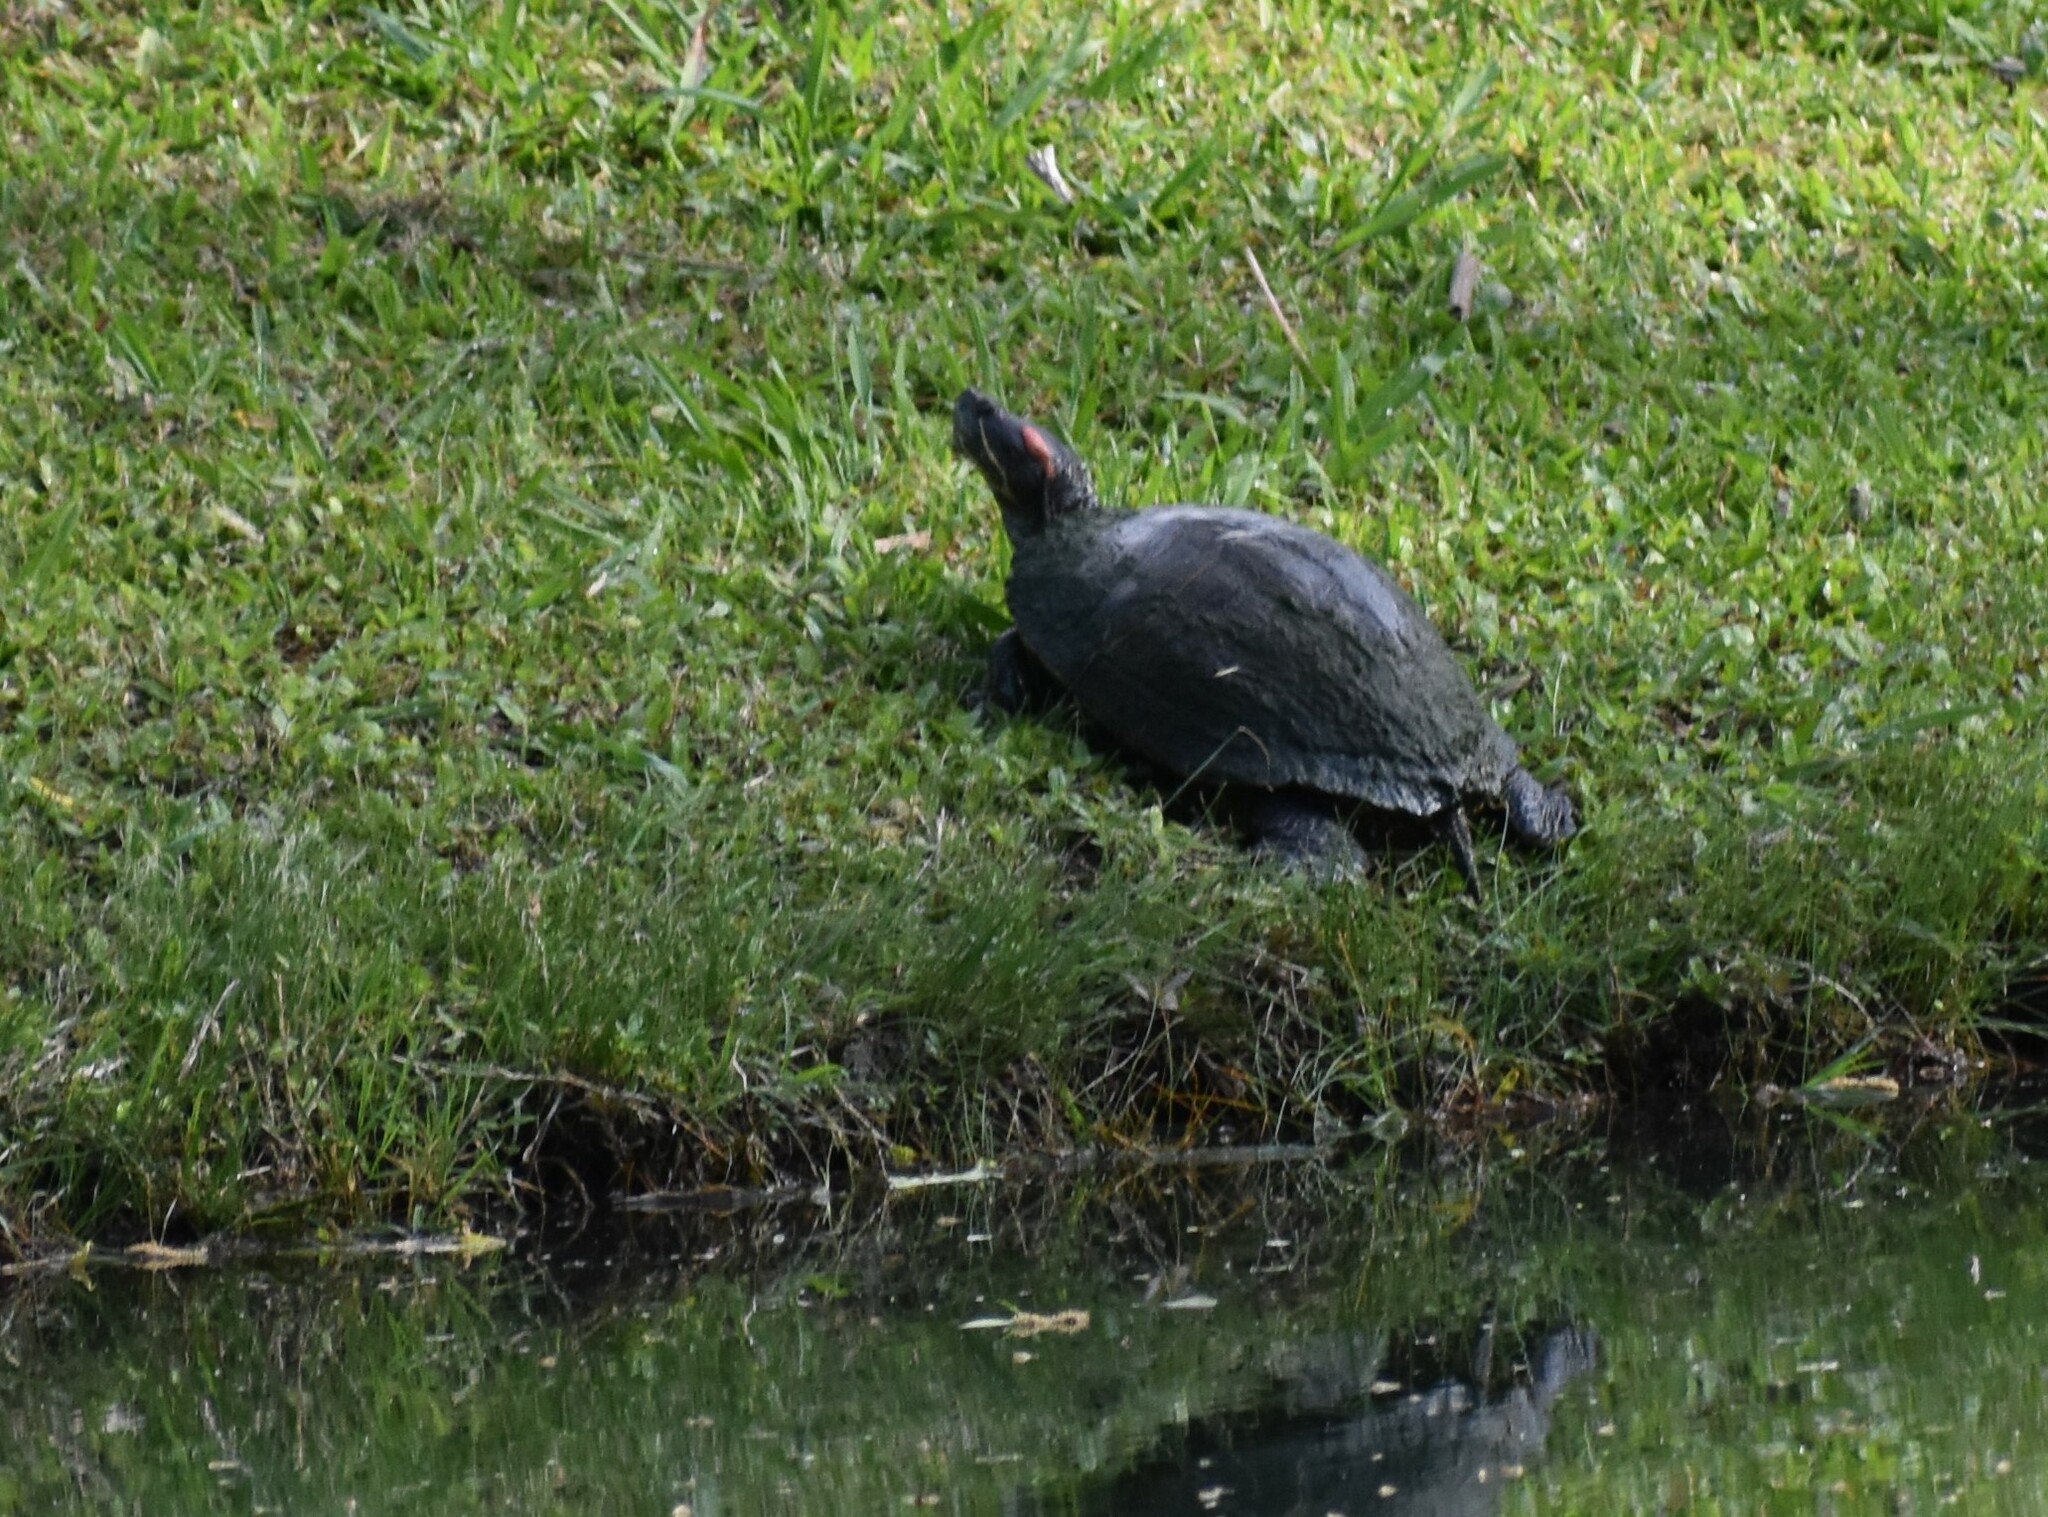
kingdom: Animalia
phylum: Chordata
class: Testudines
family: Emydidae
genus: Trachemys
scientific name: Trachemys scripta
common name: Slider
